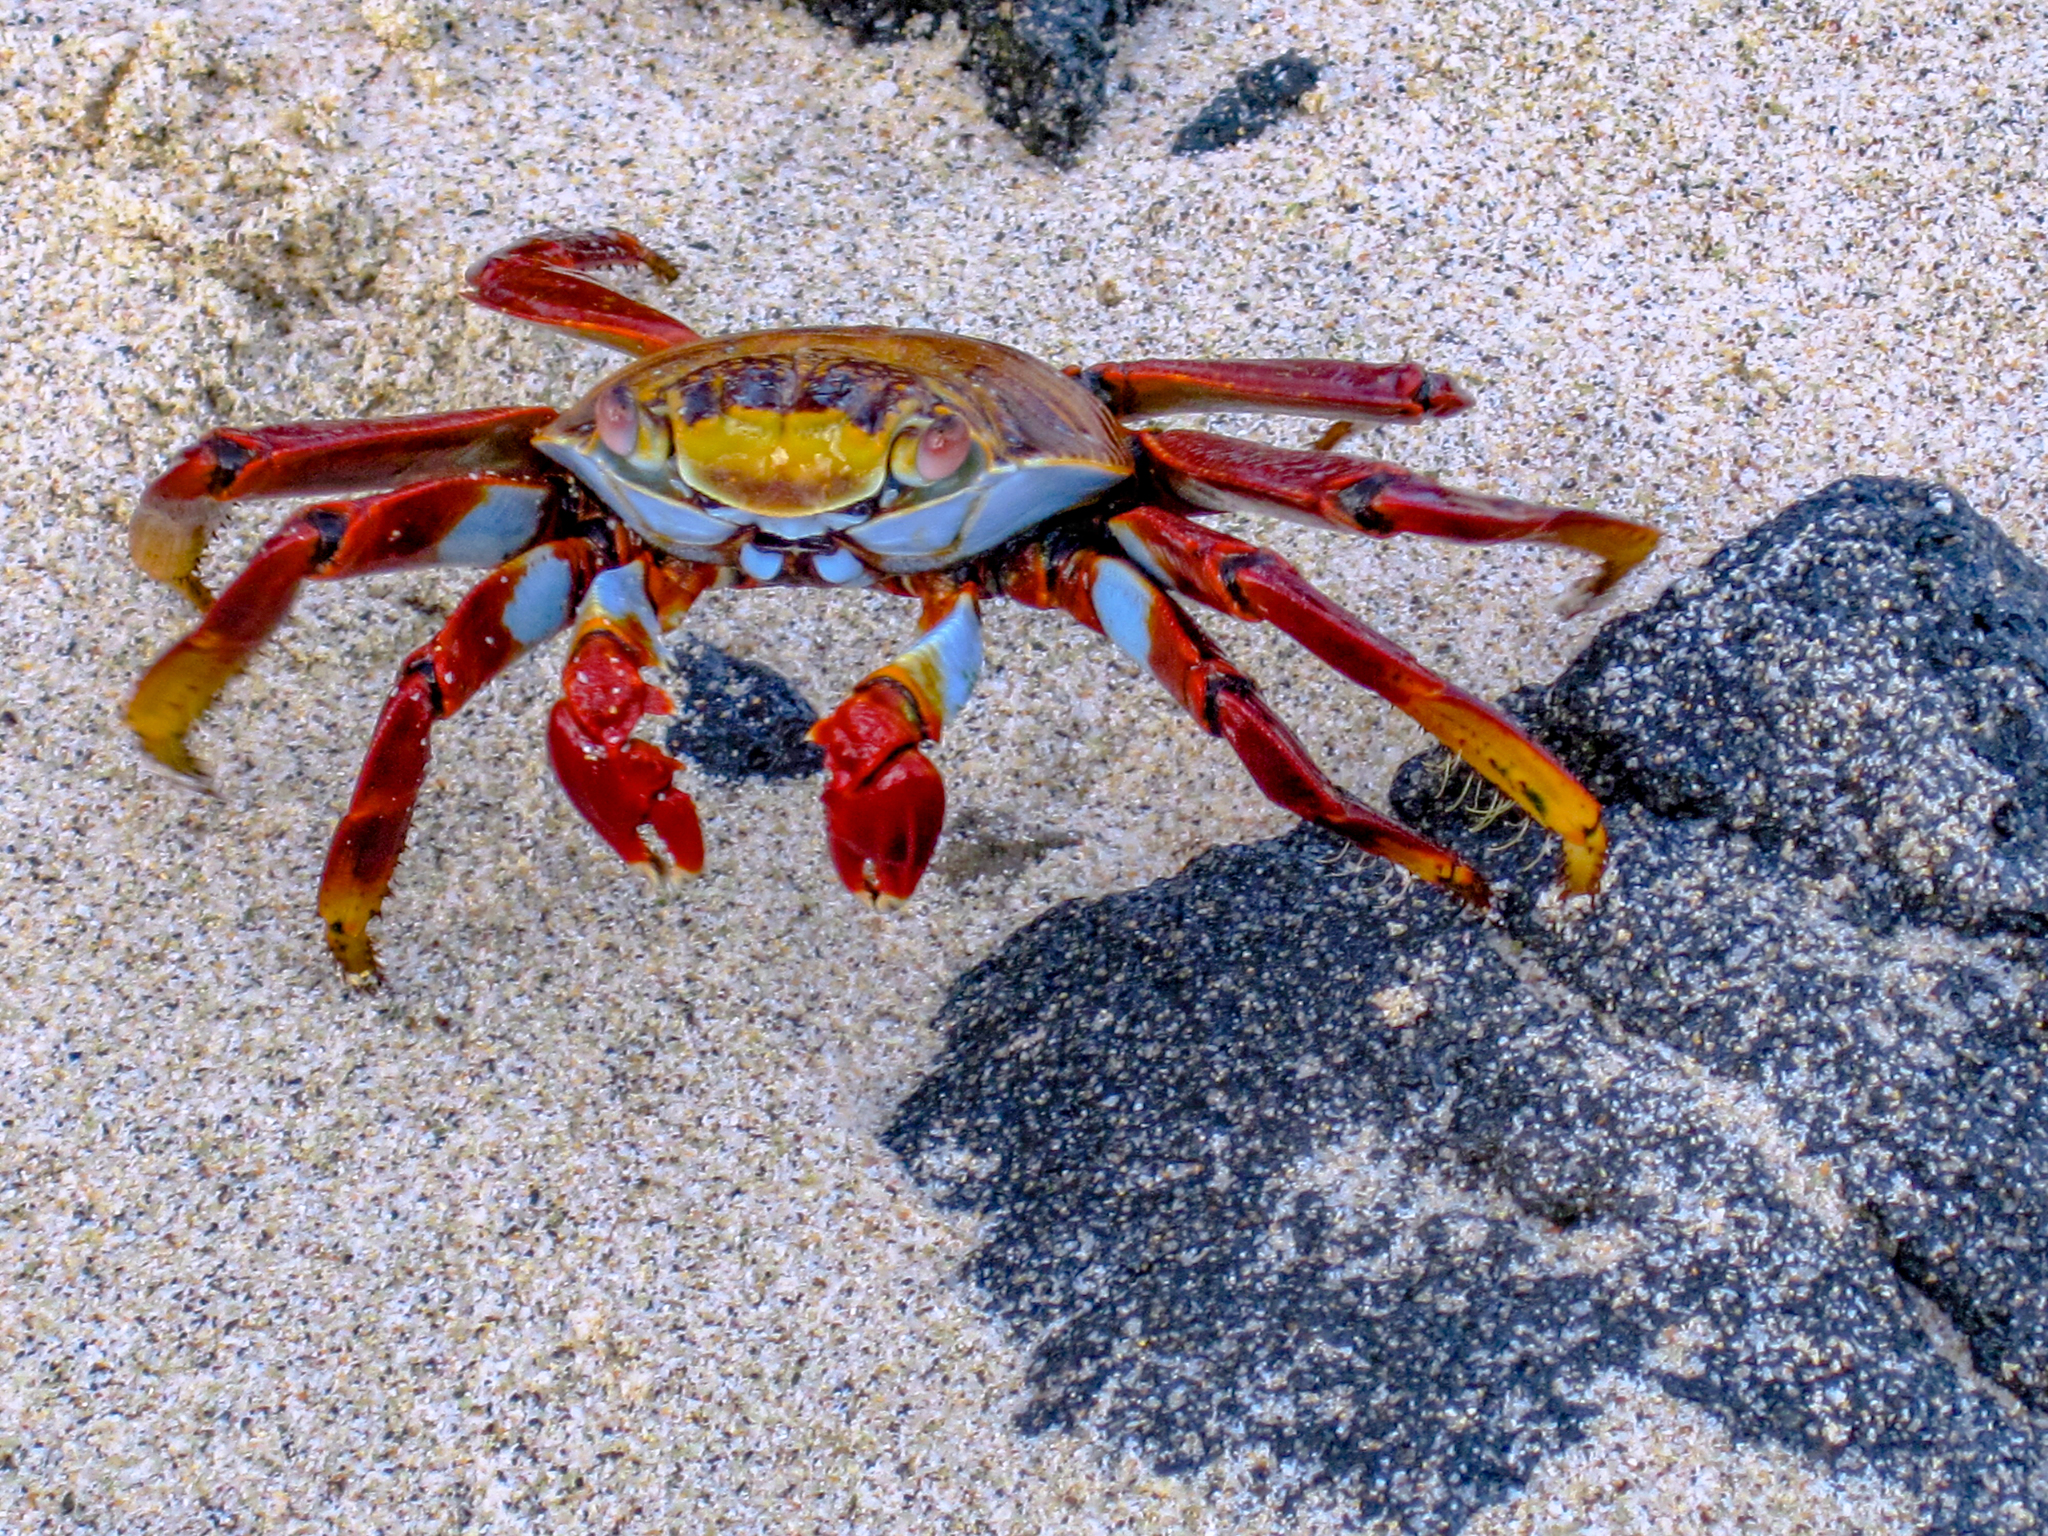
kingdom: Animalia
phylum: Arthropoda
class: Malacostraca
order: Decapoda
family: Grapsidae
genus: Grapsus
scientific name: Grapsus grapsus
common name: Sally lightfoot
